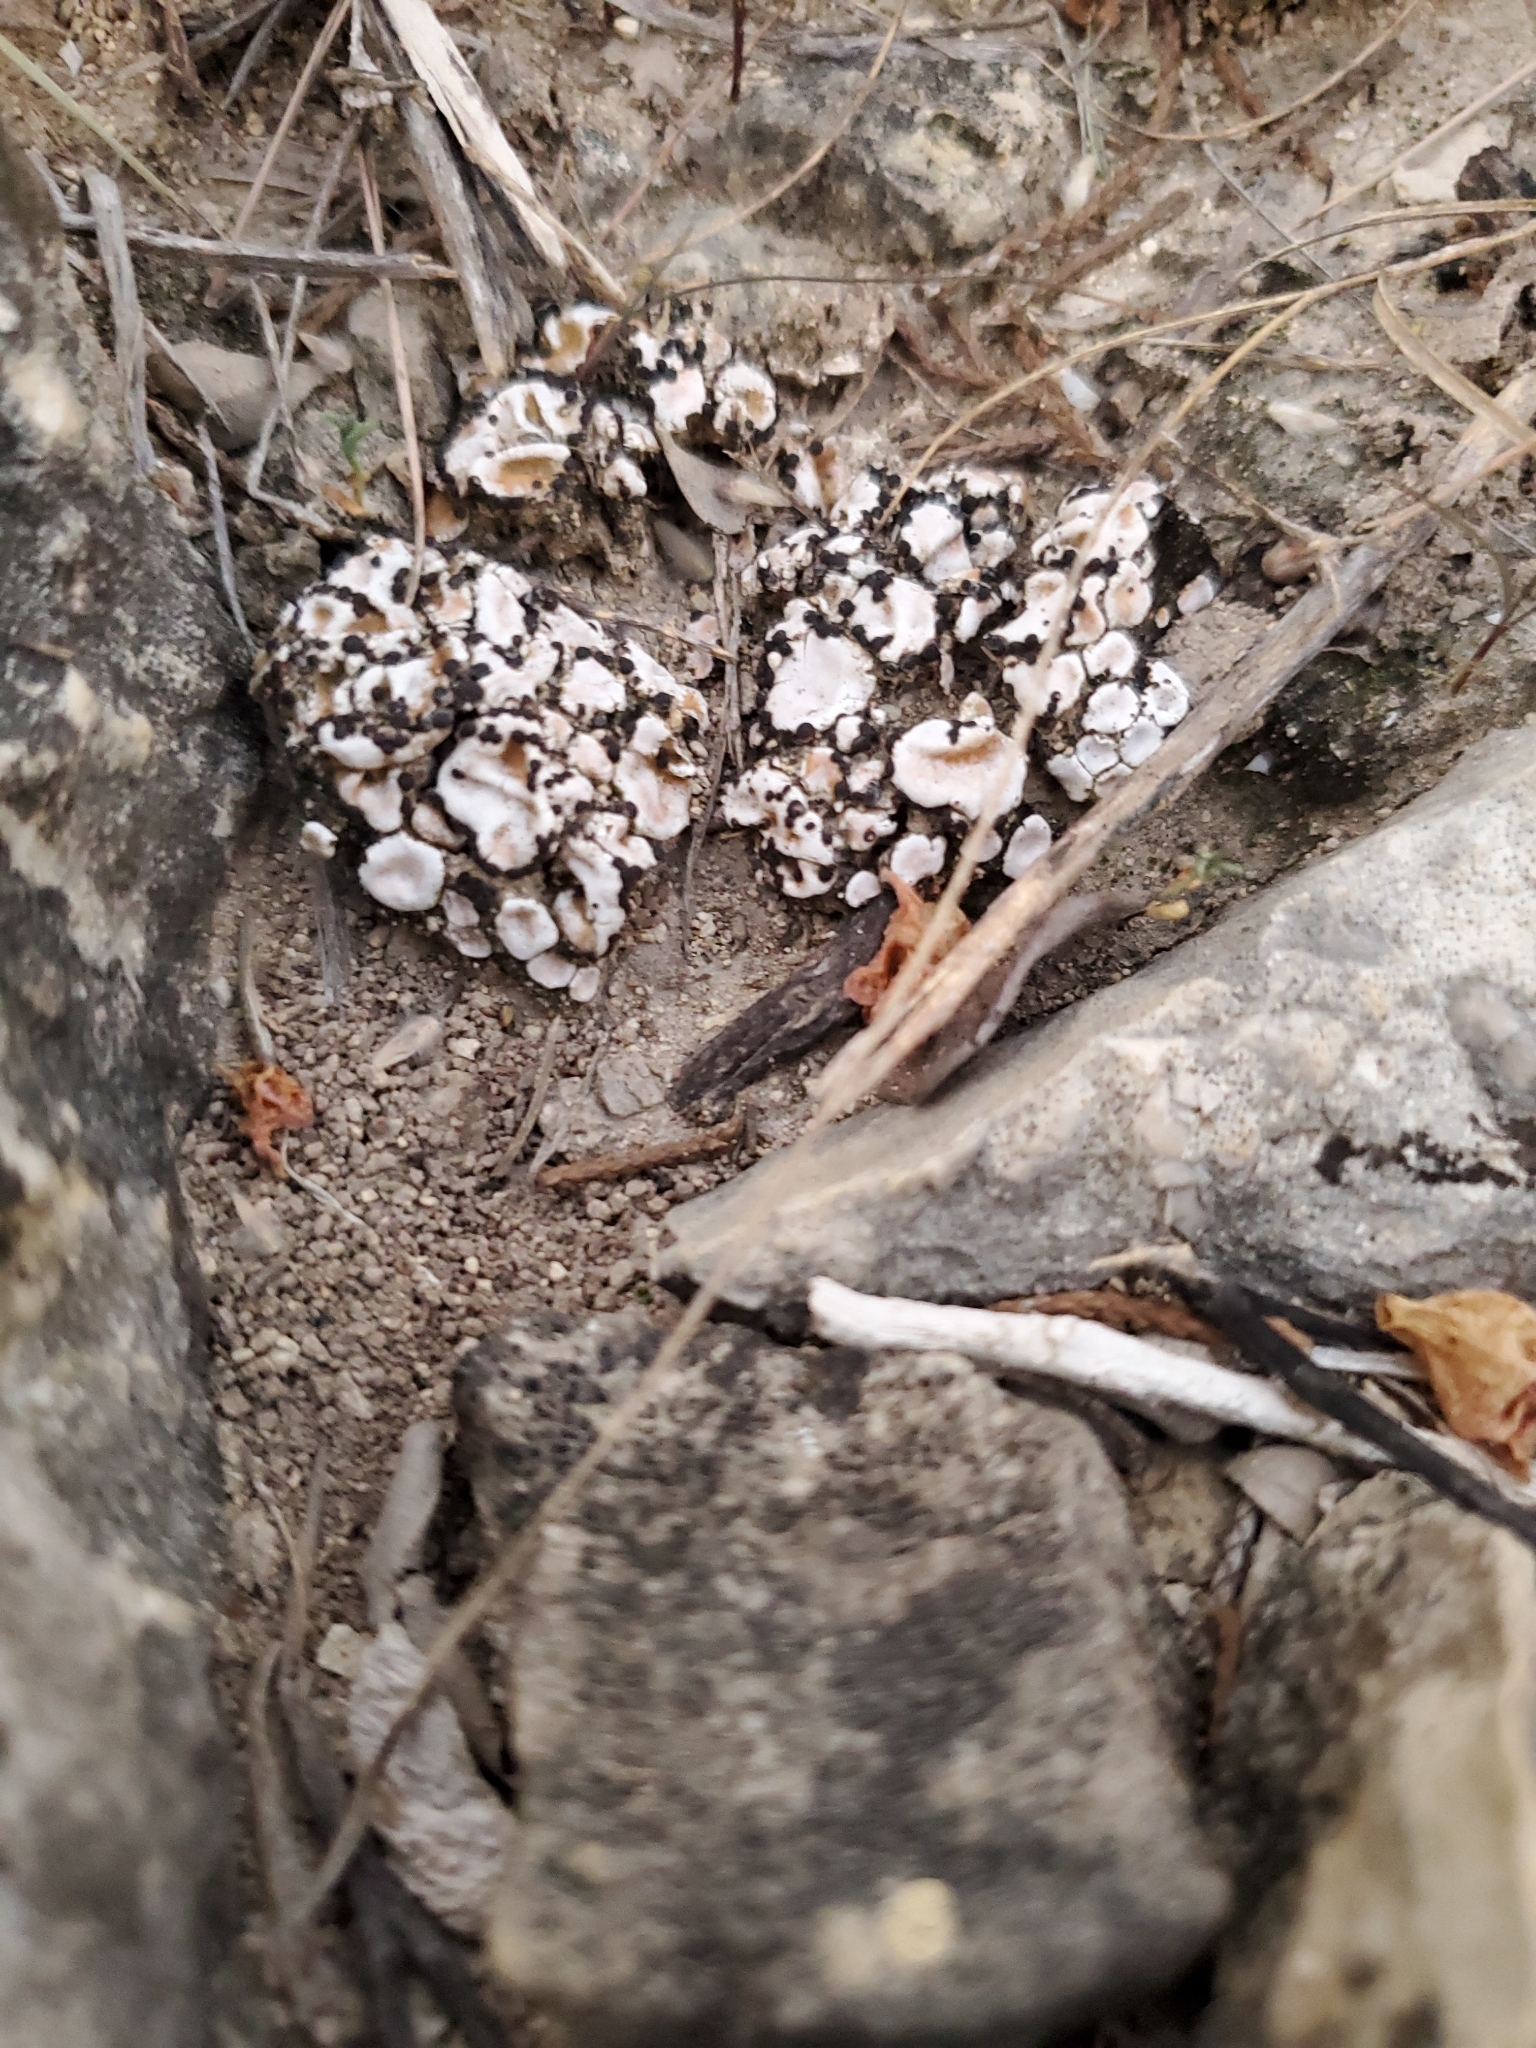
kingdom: Fungi
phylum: Ascomycota
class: Lecanoromycetes
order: Lecanorales
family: Psoraceae
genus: Psora
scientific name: Psora crenata
